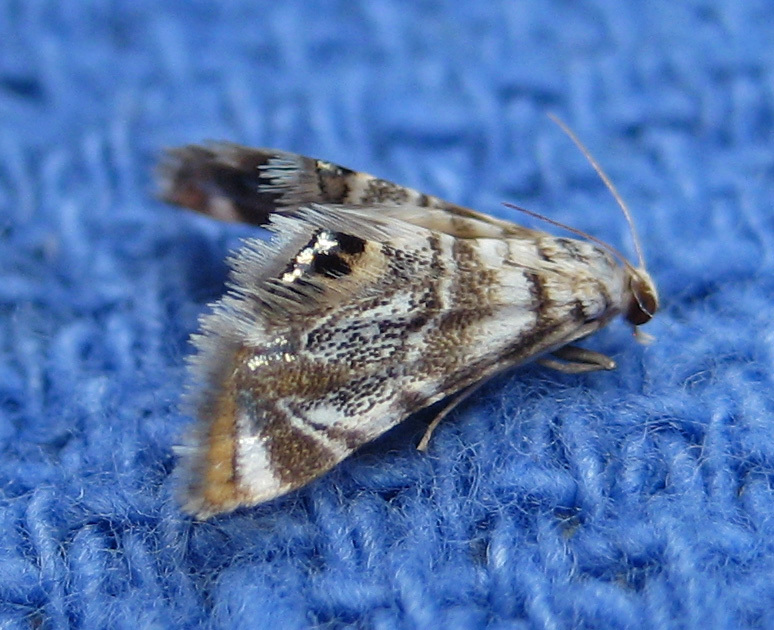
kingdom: Animalia
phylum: Arthropoda
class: Insecta
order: Lepidoptera
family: Crambidae
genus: Eoparargyractis
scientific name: Eoparargyractis irroratalis
